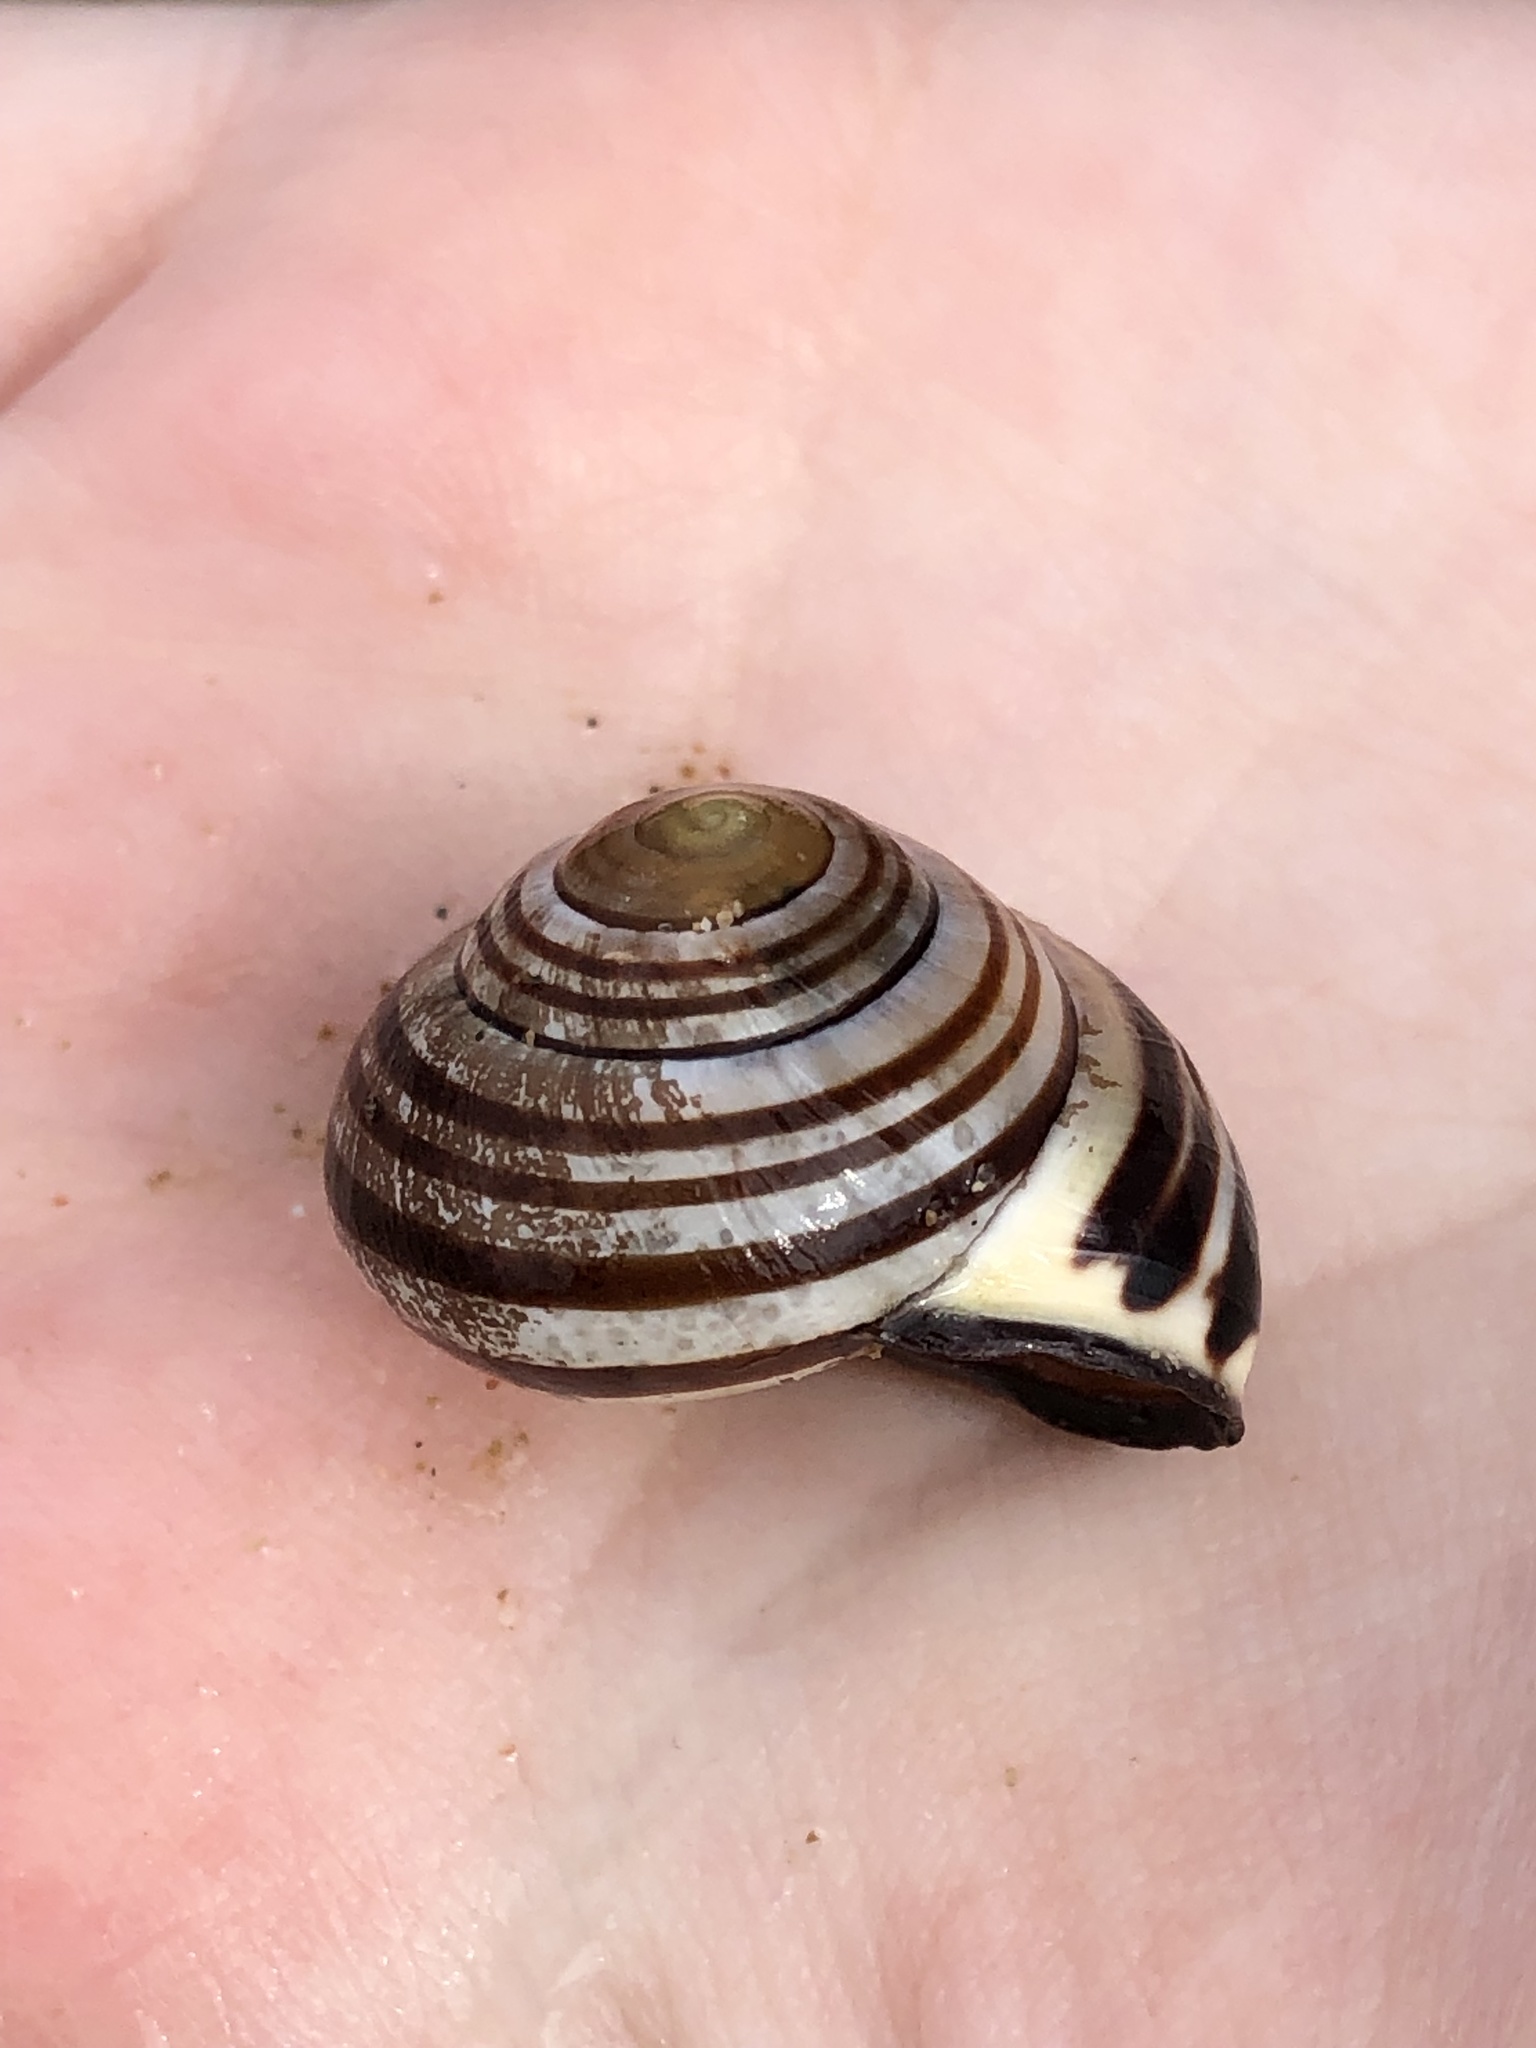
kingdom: Animalia
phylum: Mollusca
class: Gastropoda
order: Stylommatophora
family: Helicidae
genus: Cepaea
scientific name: Cepaea nemoralis
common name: Grovesnail
